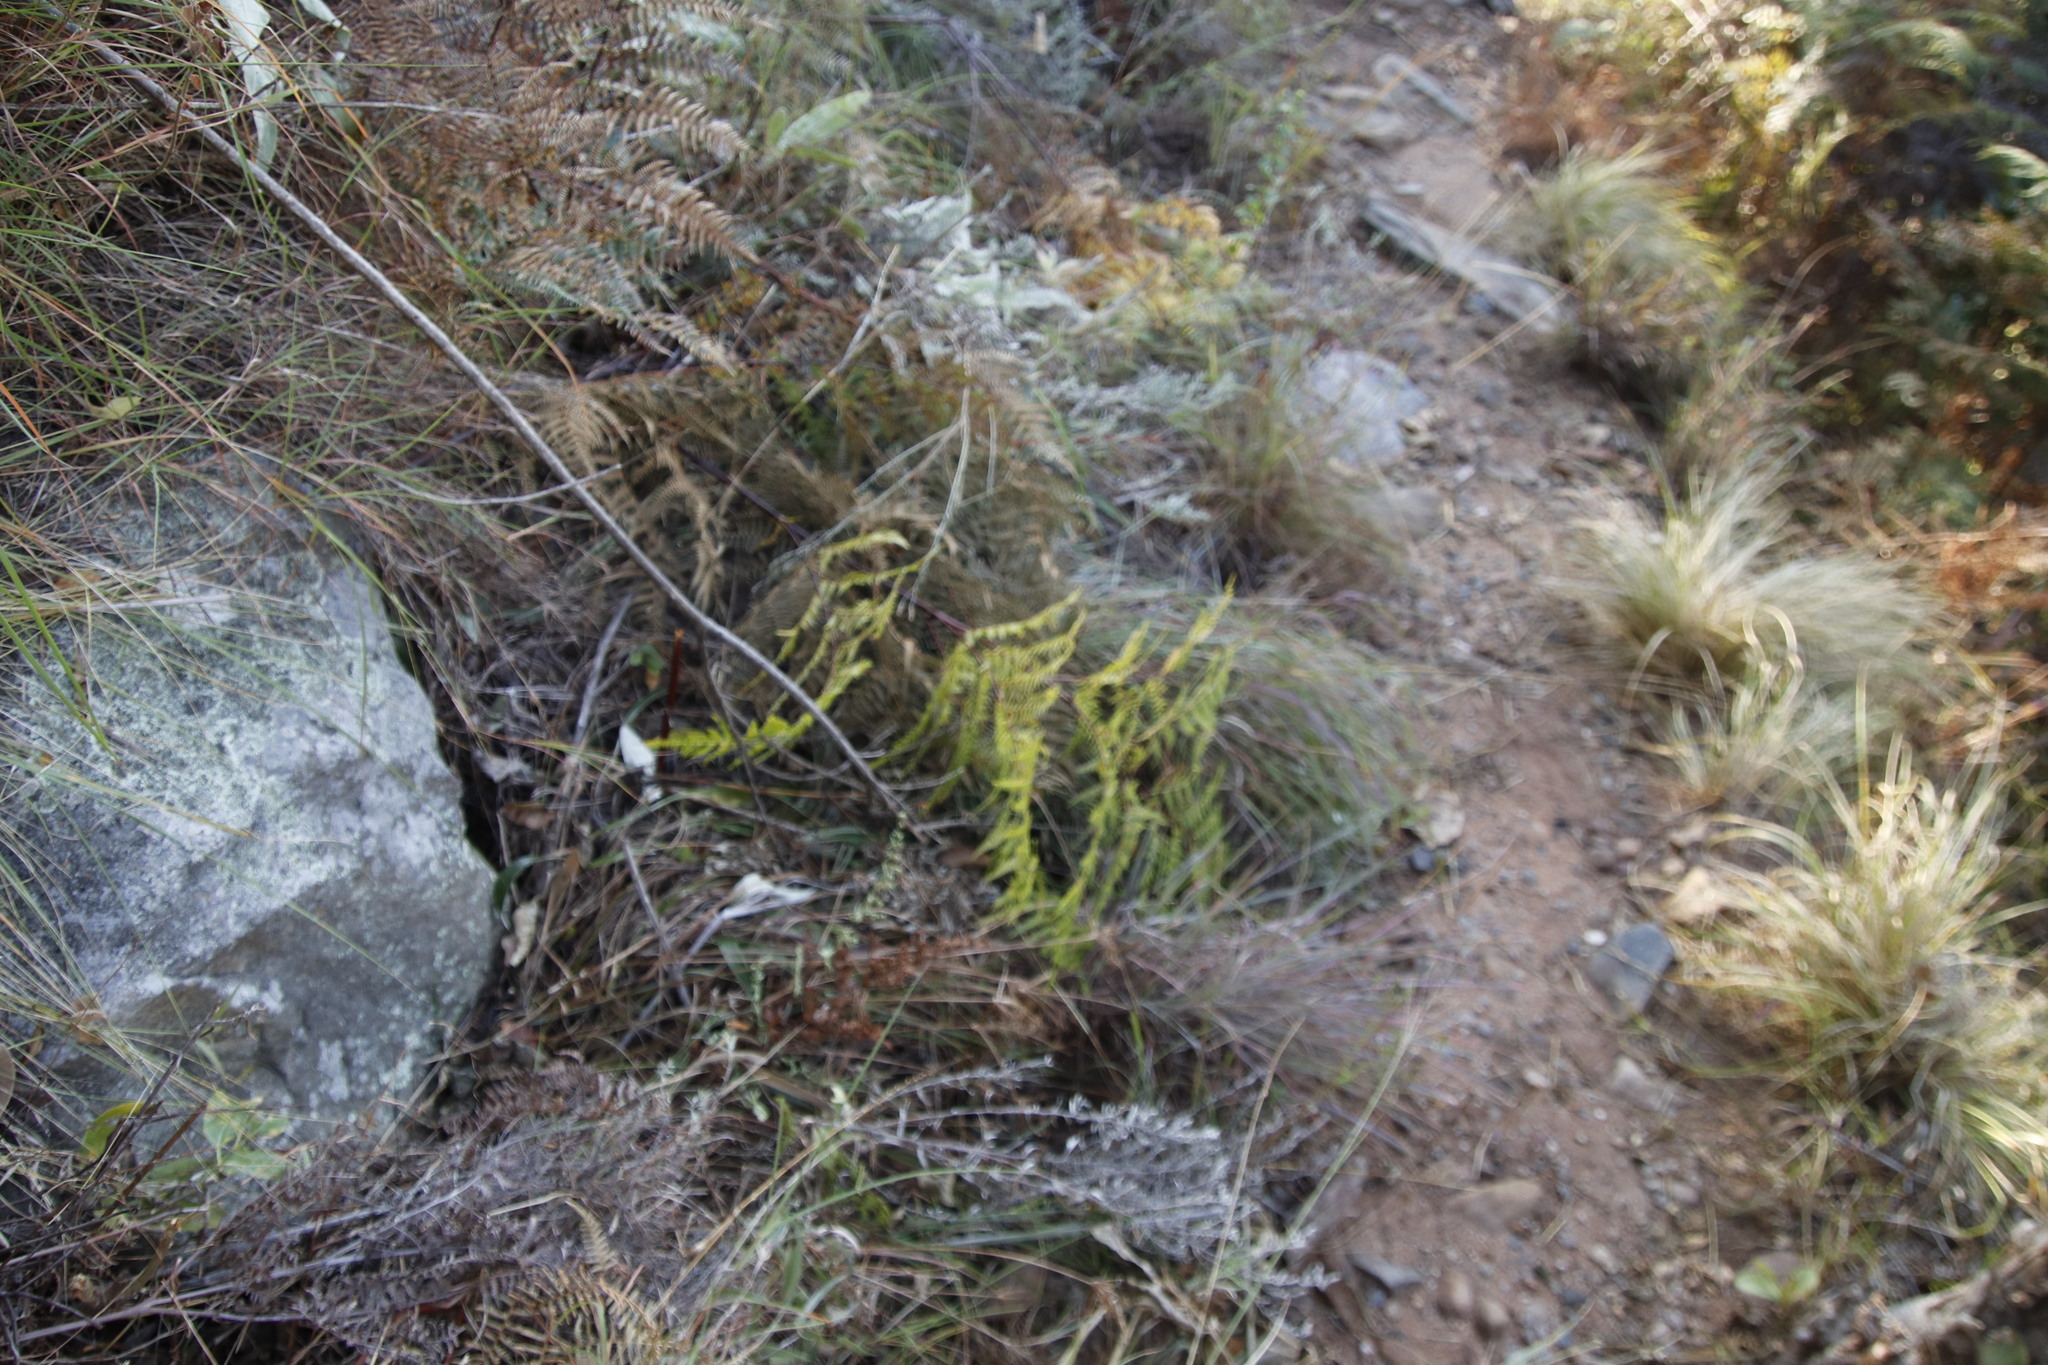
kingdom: Plantae
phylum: Tracheophyta
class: Polypodiopsida
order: Polypodiales
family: Dennstaedtiaceae
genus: Pteridium
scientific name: Pteridium aquilinum
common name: Bracken
